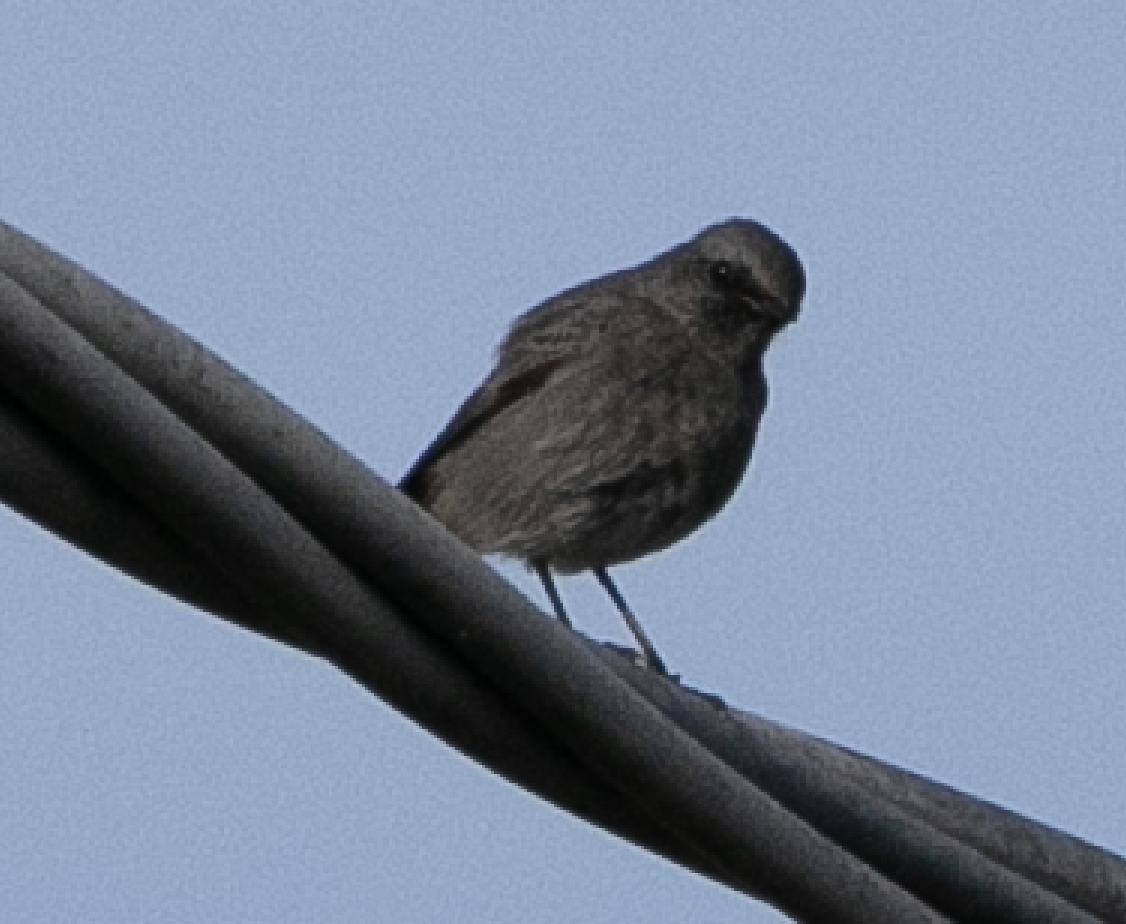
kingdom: Animalia
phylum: Chordata
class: Aves
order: Passeriformes
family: Muscicapidae
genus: Phoenicurus
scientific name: Phoenicurus ochruros
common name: Black redstart
